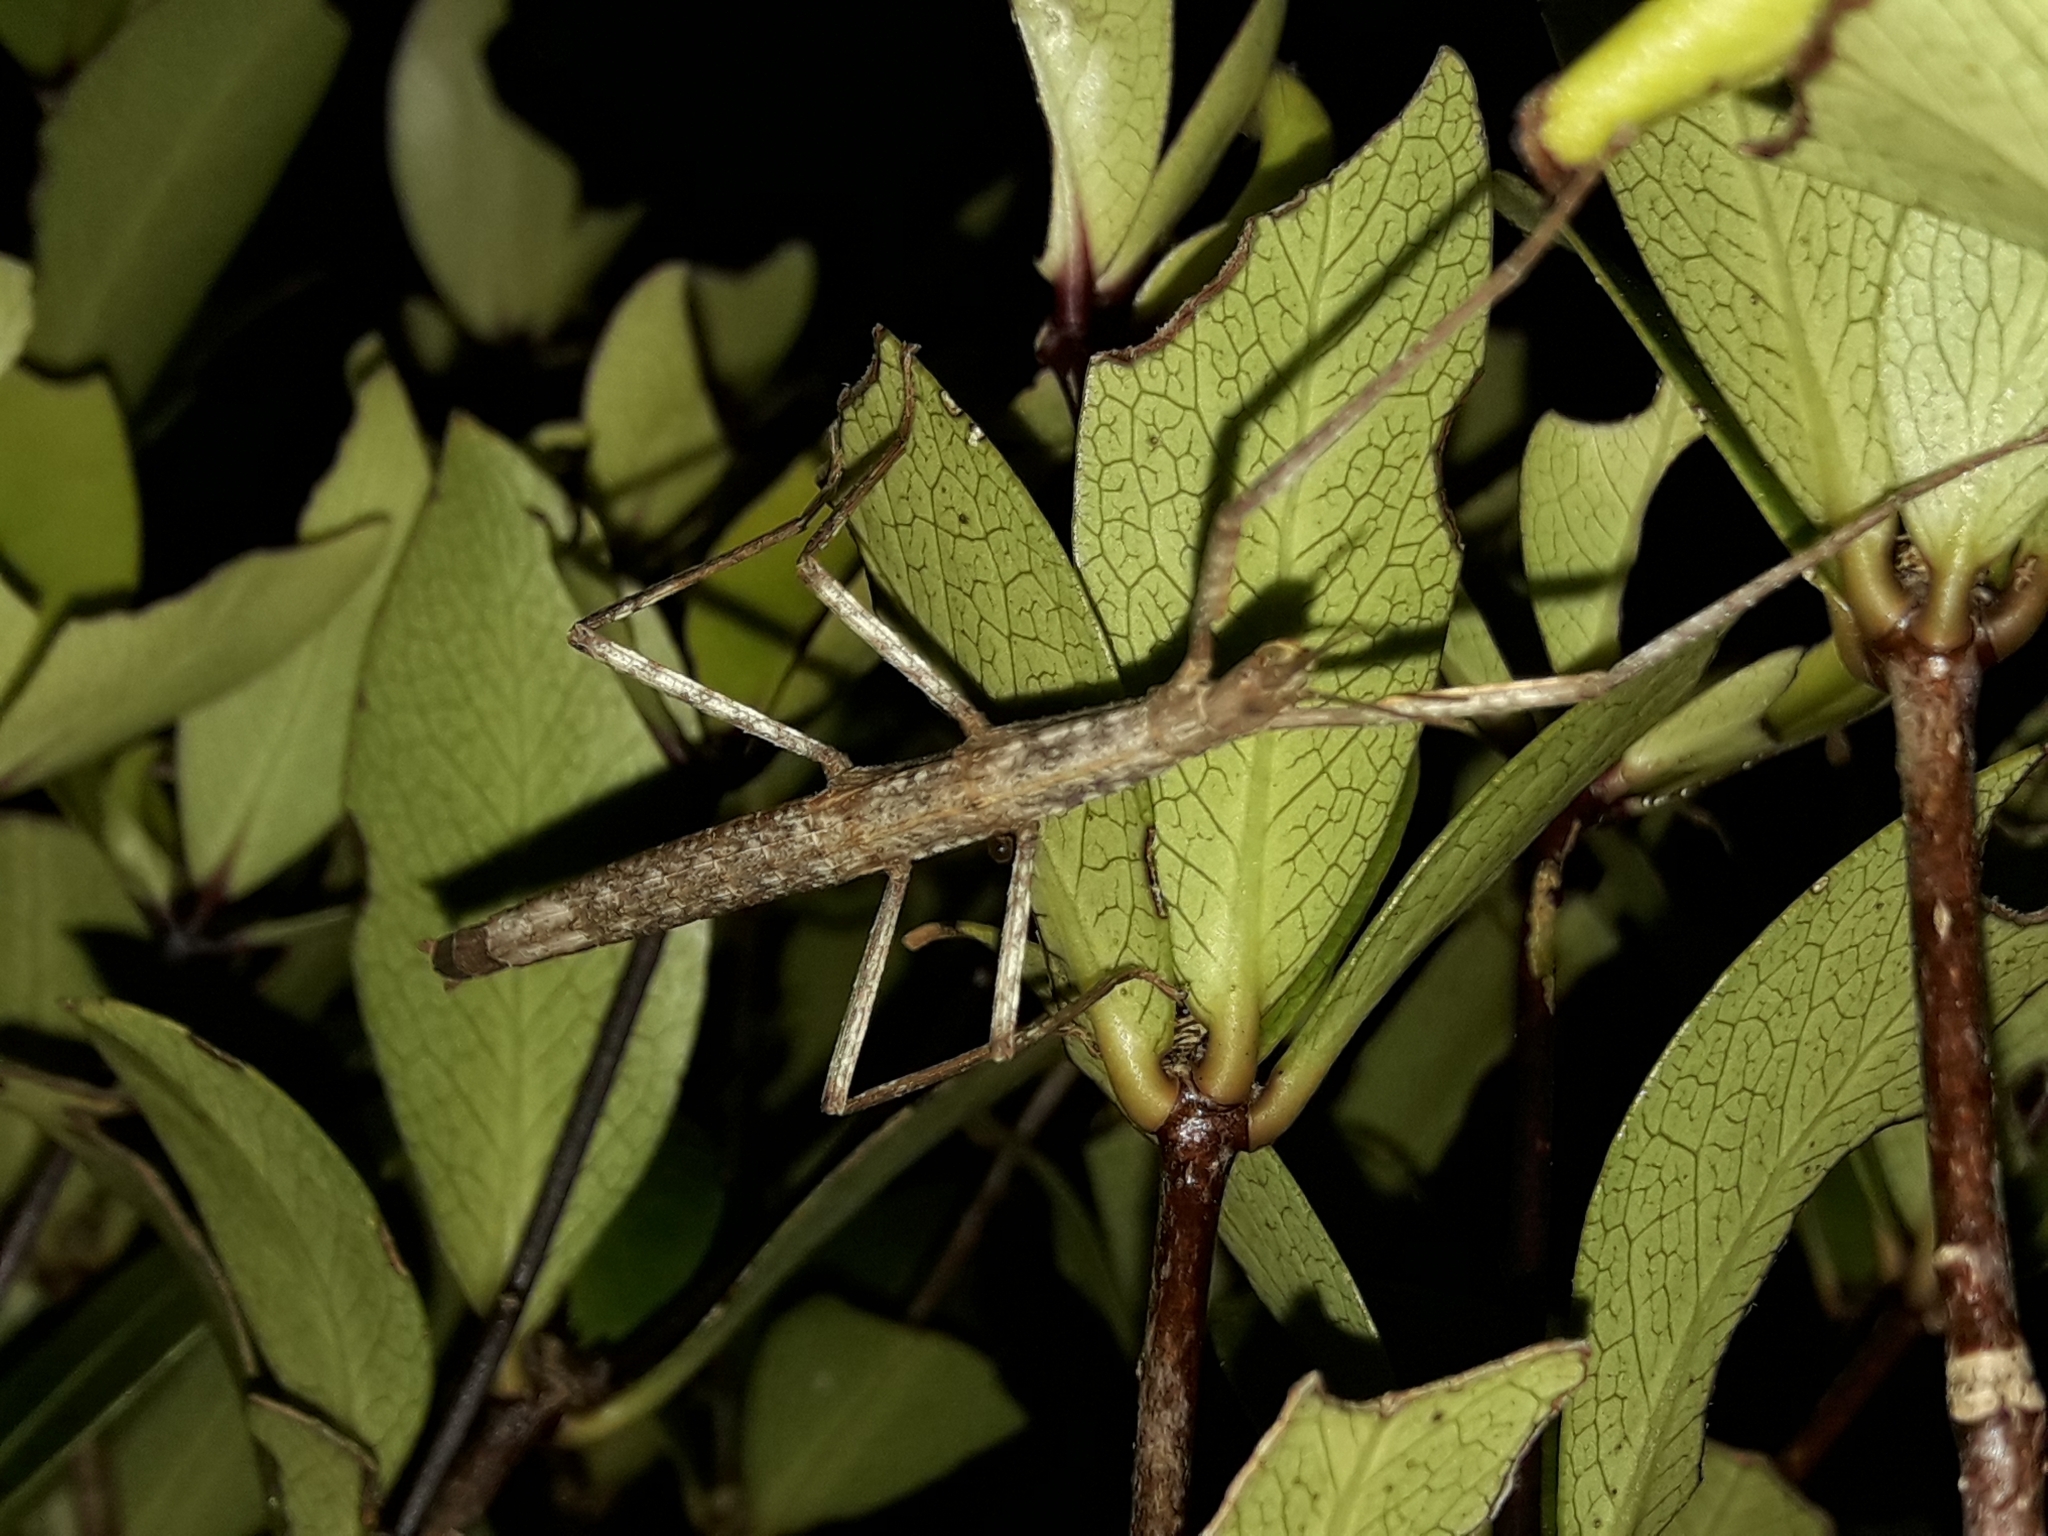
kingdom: Animalia
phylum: Arthropoda
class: Insecta
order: Phasmida
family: Phasmatidae
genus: Tectarchus
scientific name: Tectarchus huttoni
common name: The common ridge-backed stick insect
